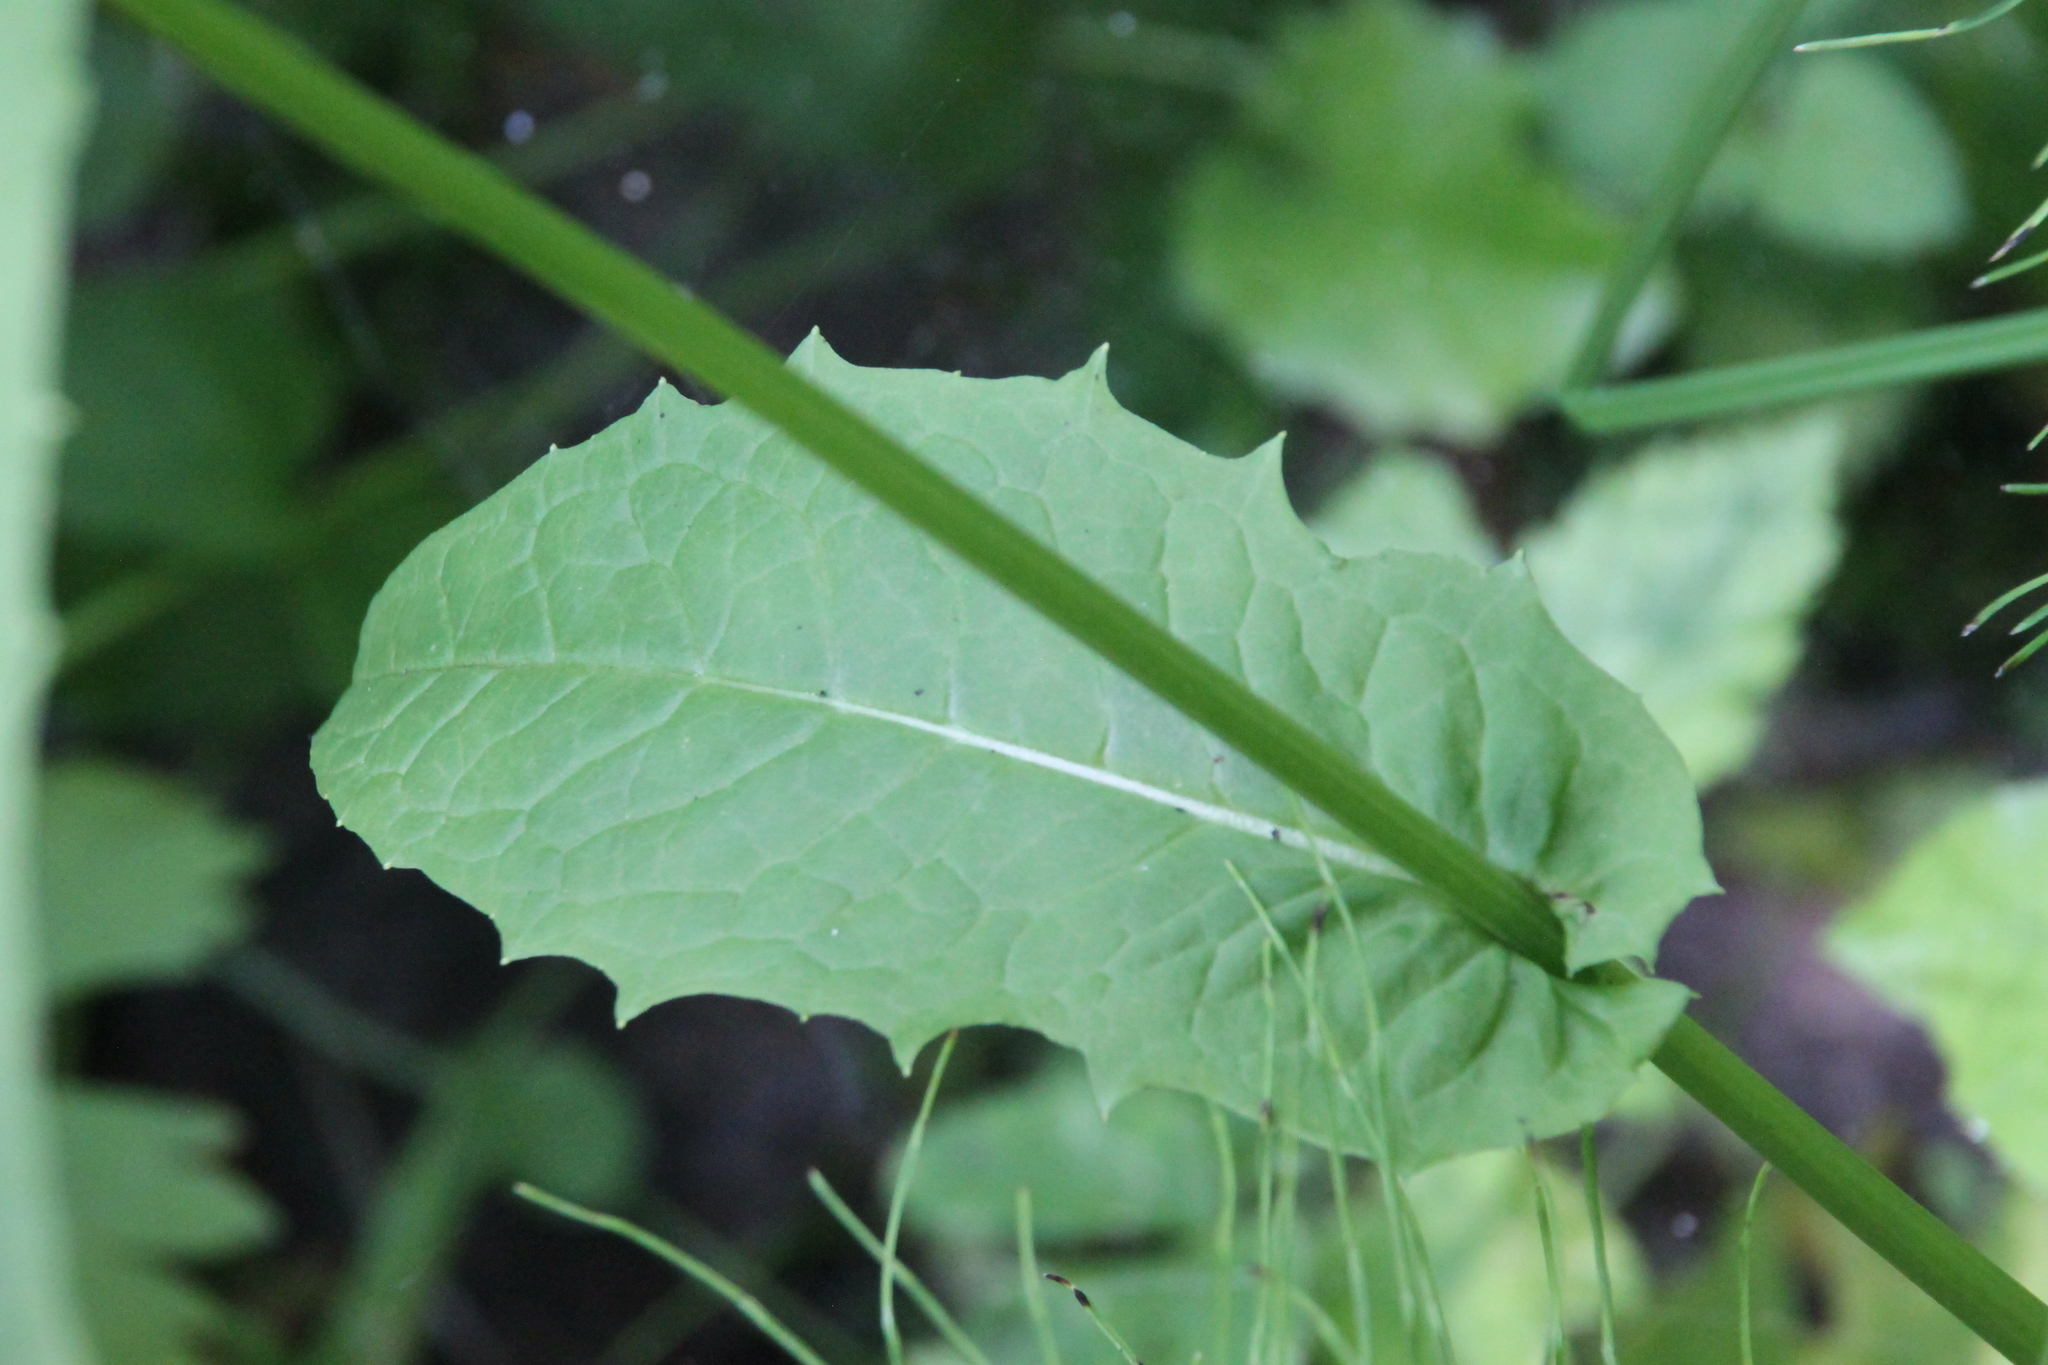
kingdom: Plantae
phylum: Tracheophyta
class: Magnoliopsida
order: Asterales
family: Asteraceae
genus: Crepis
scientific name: Crepis paludosa
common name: Marsh hawk's-beard
